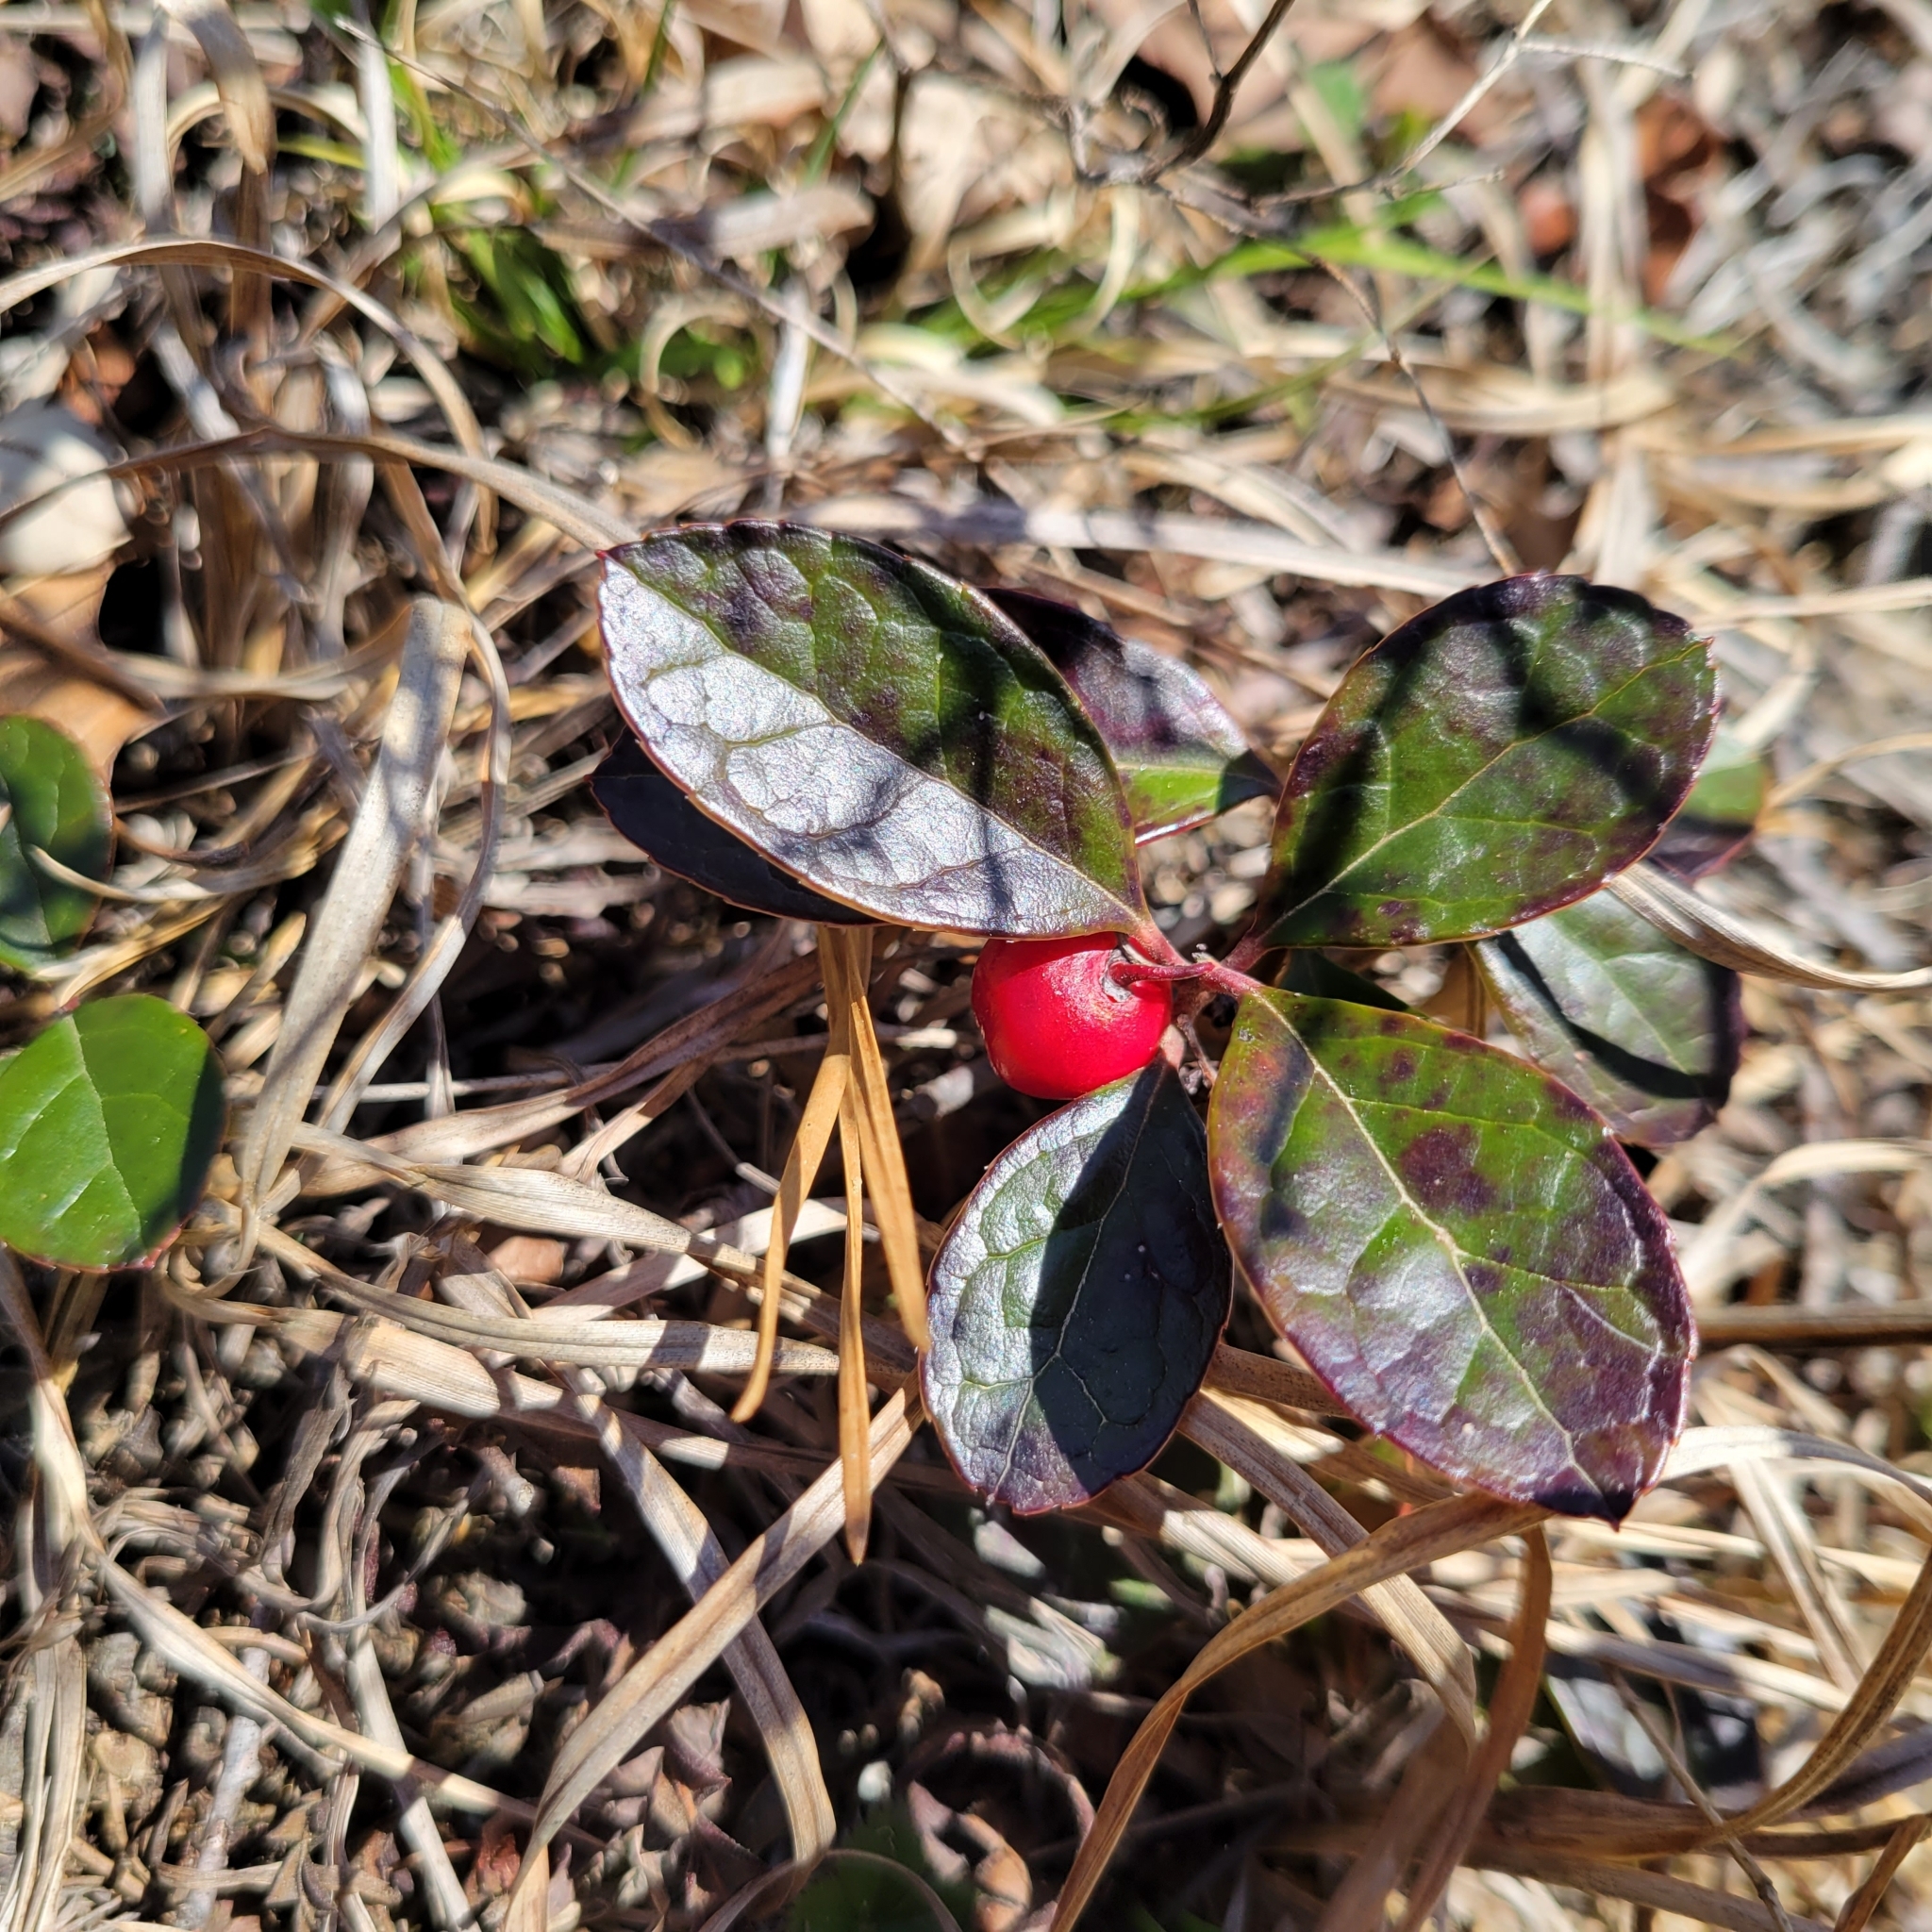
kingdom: Plantae
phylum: Tracheophyta
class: Magnoliopsida
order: Ericales
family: Ericaceae
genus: Gaultheria
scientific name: Gaultheria procumbens
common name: Checkerberry
